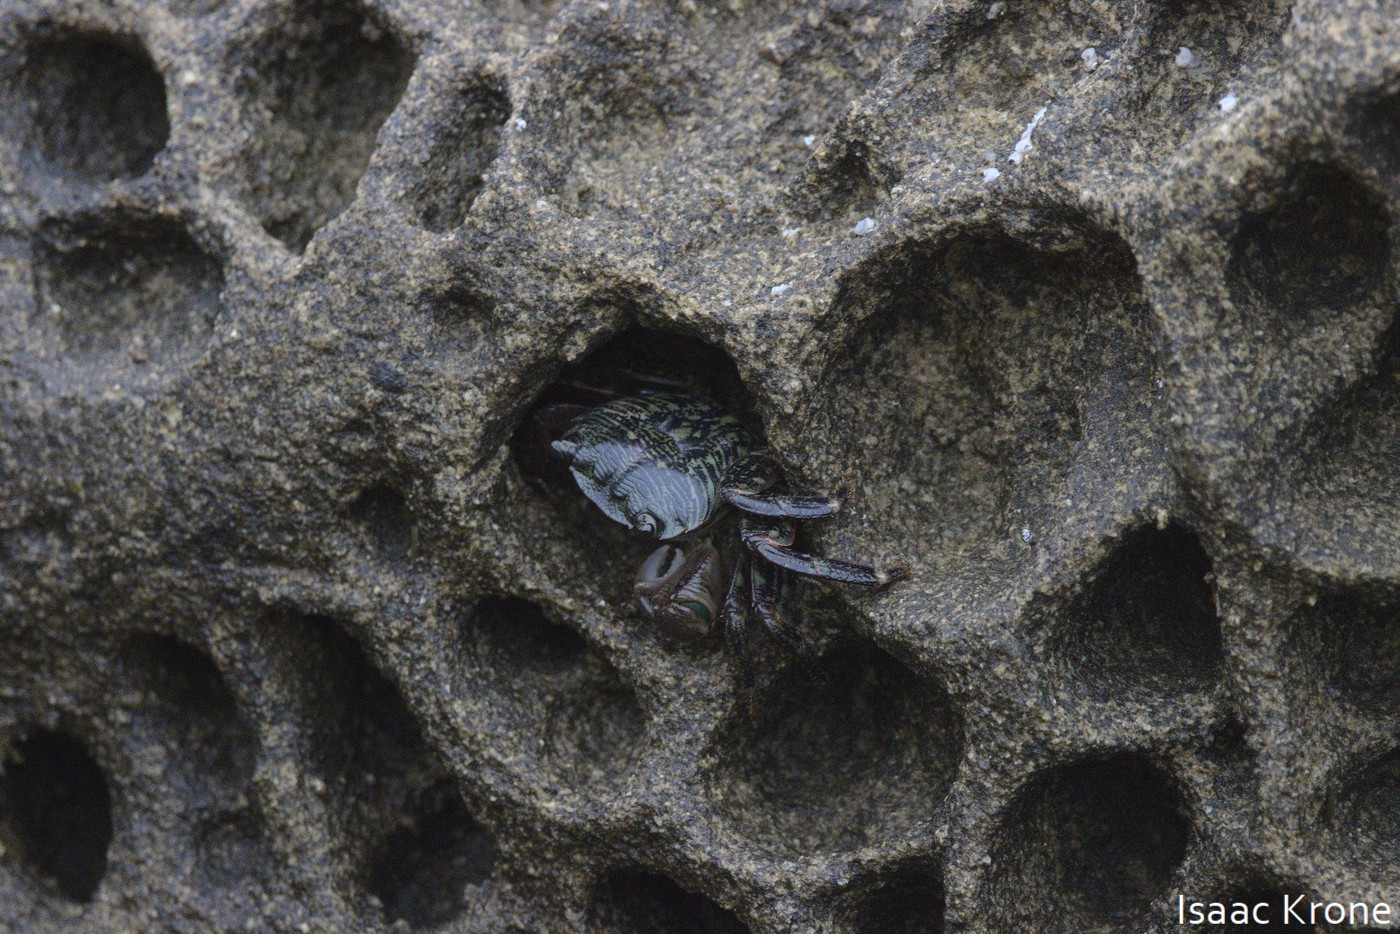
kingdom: Animalia
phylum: Arthropoda
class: Malacostraca
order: Decapoda
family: Grapsidae
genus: Pachygrapsus
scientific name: Pachygrapsus crassipes
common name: Striped shore crab
